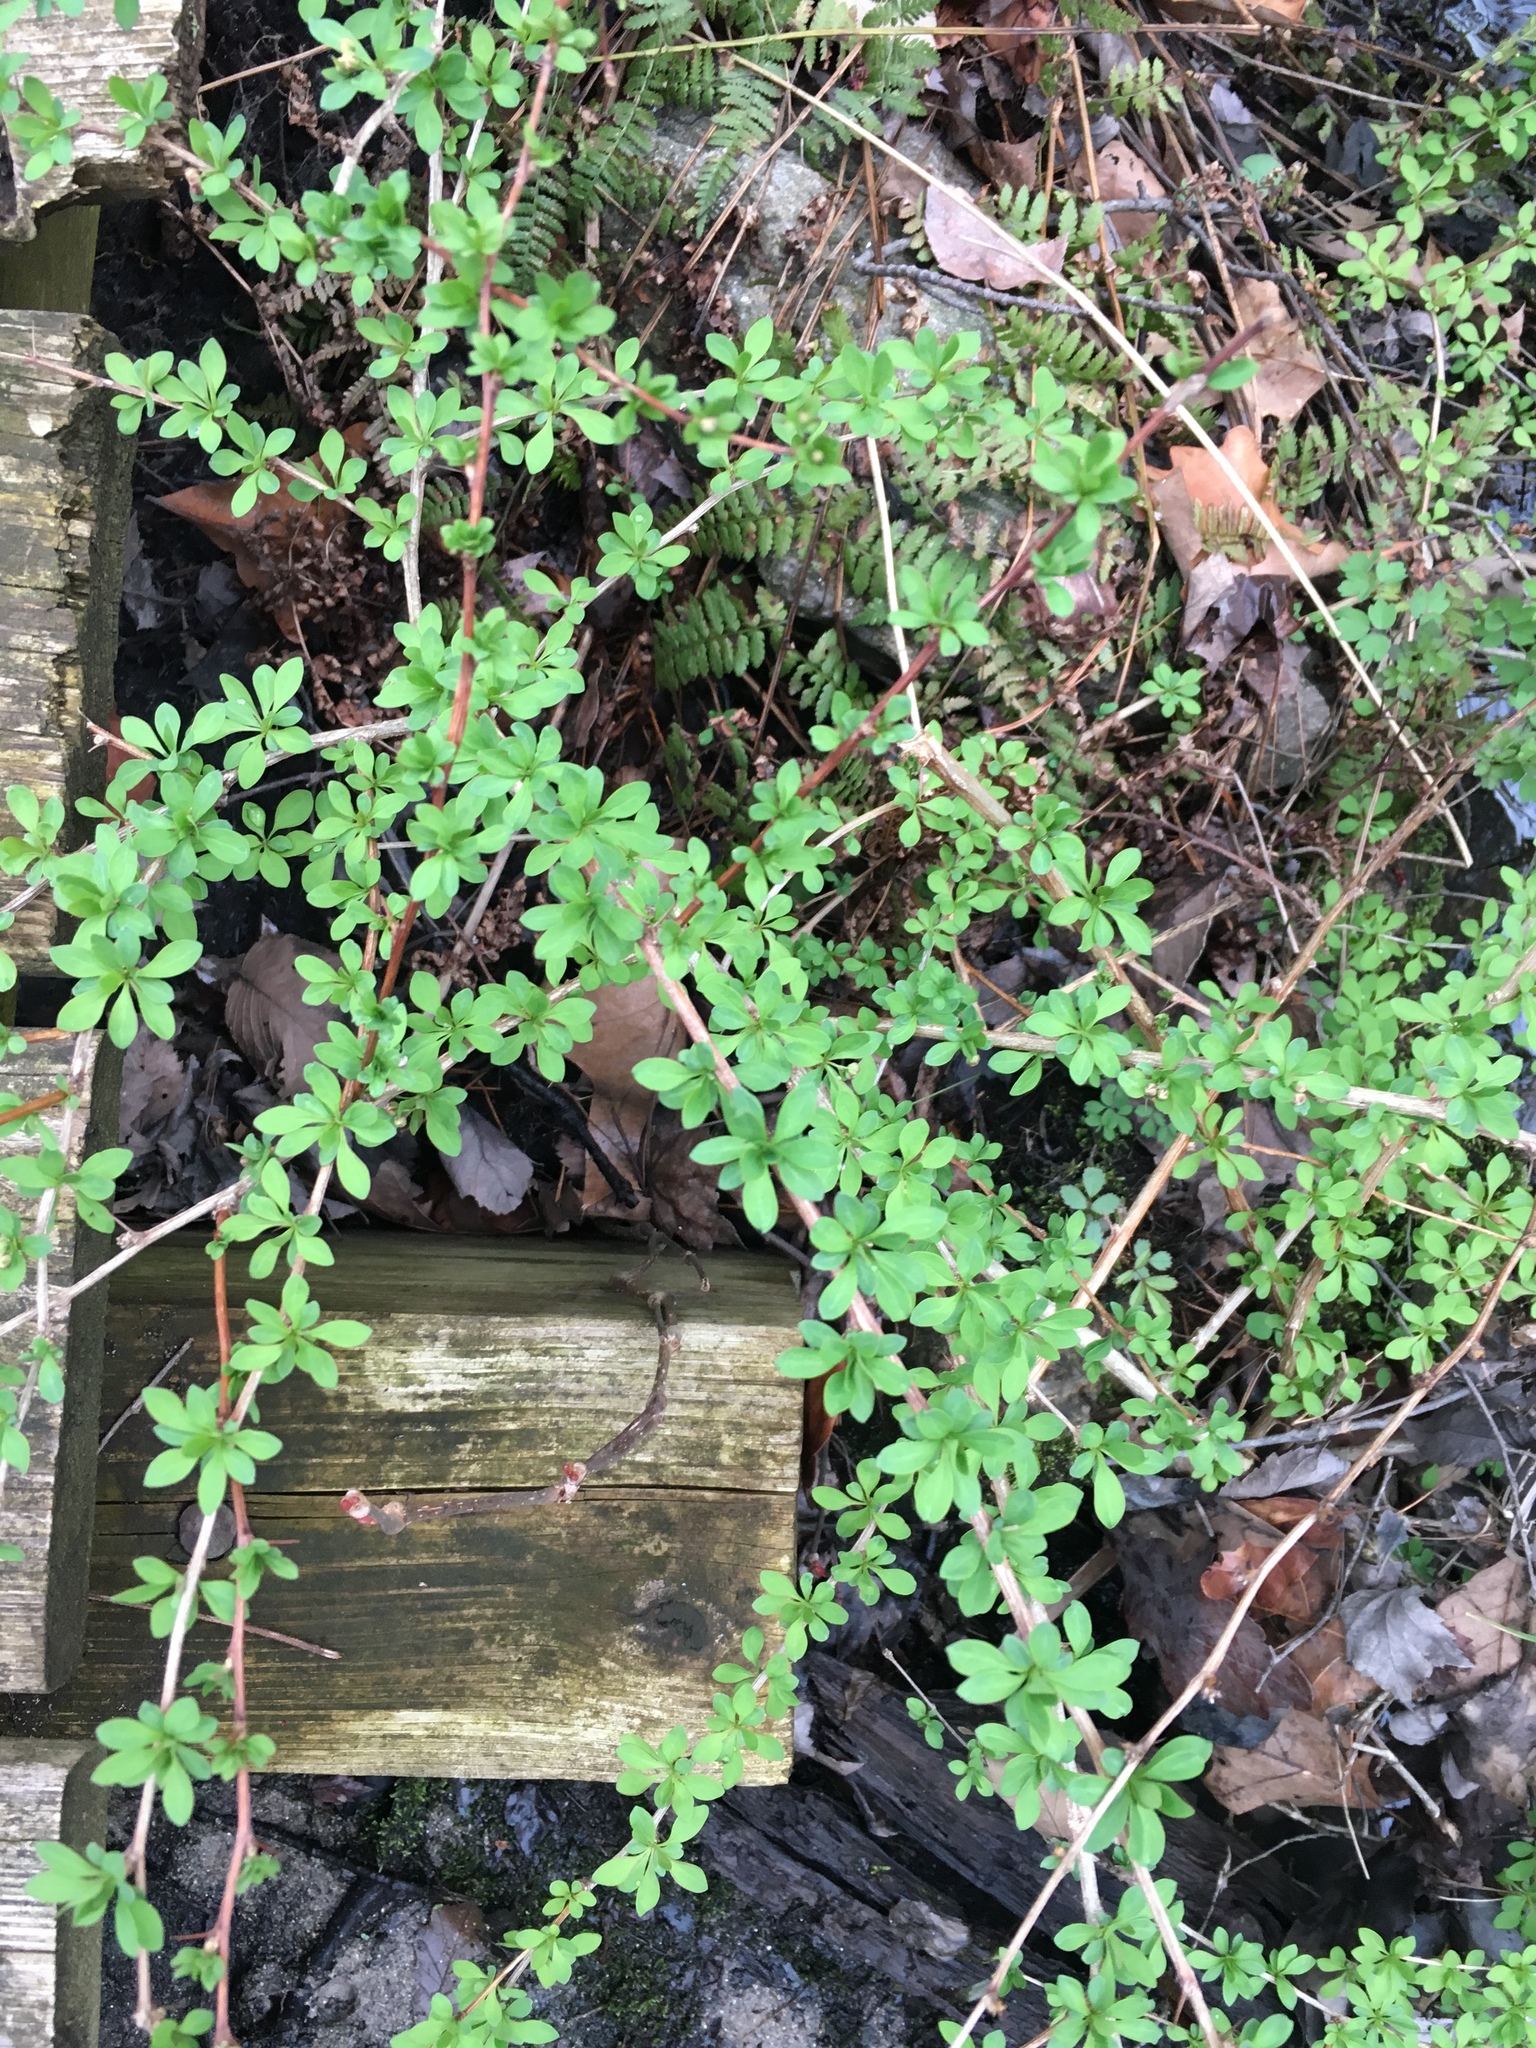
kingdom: Plantae
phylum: Tracheophyta
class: Magnoliopsida
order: Ranunculales
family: Berberidaceae
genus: Berberis
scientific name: Berberis thunbergii
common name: Japanese barberry
